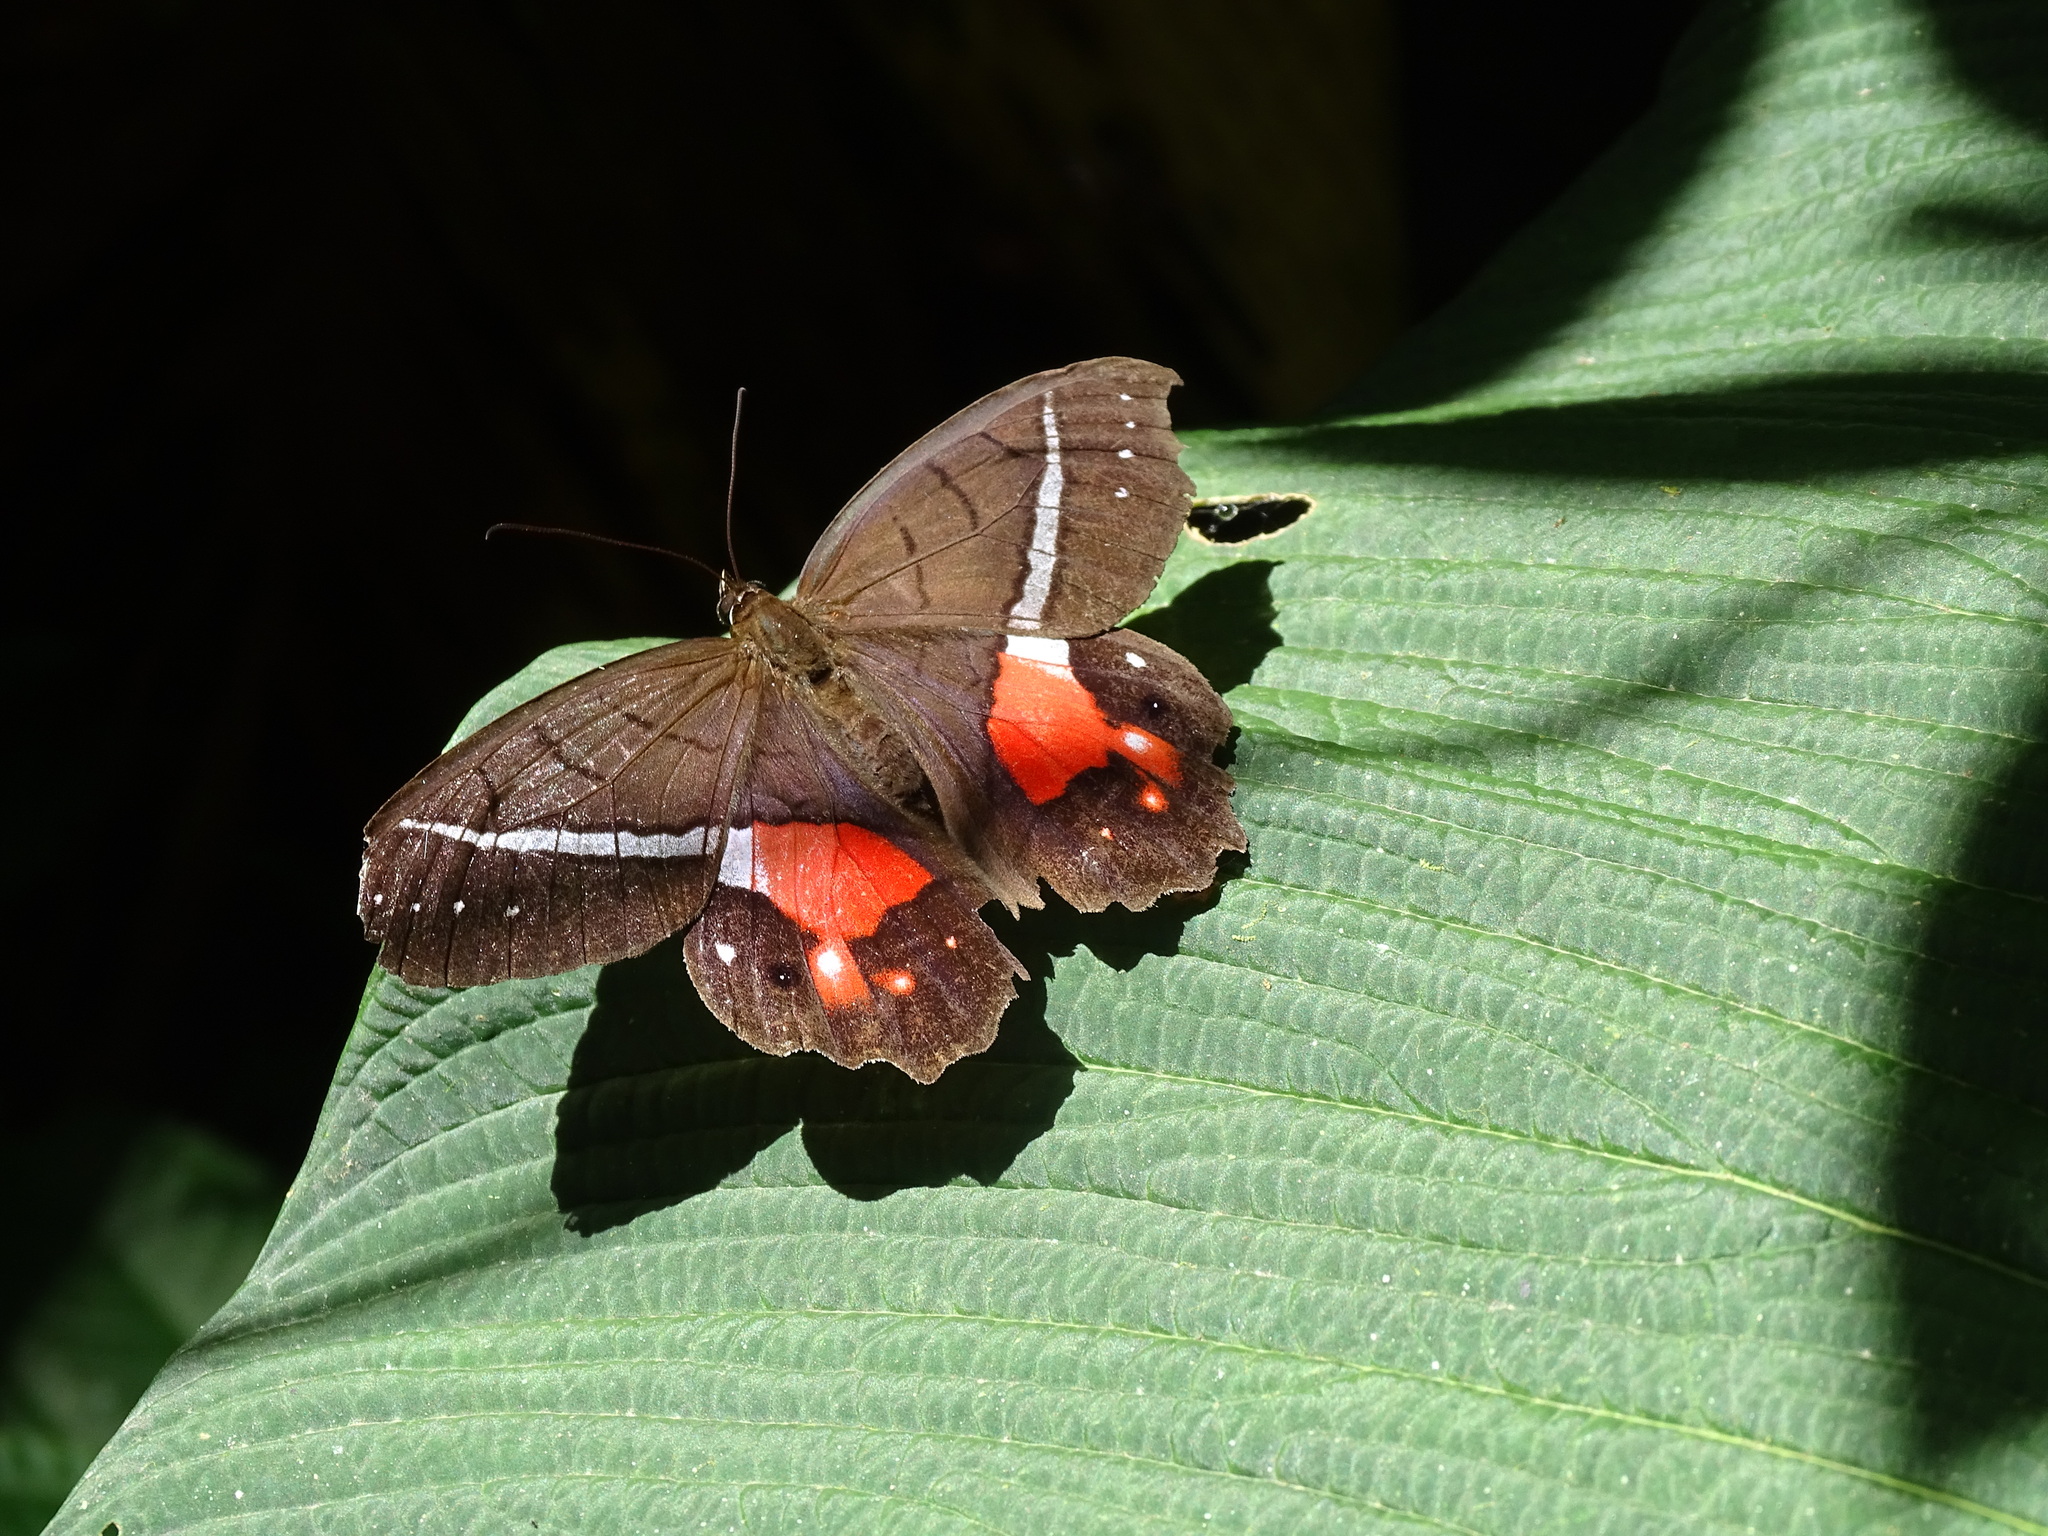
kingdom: Animalia
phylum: Arthropoda
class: Insecta
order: Lepidoptera
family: Nymphalidae
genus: Pierella
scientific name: Pierella helvina
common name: Red-washed satyr
